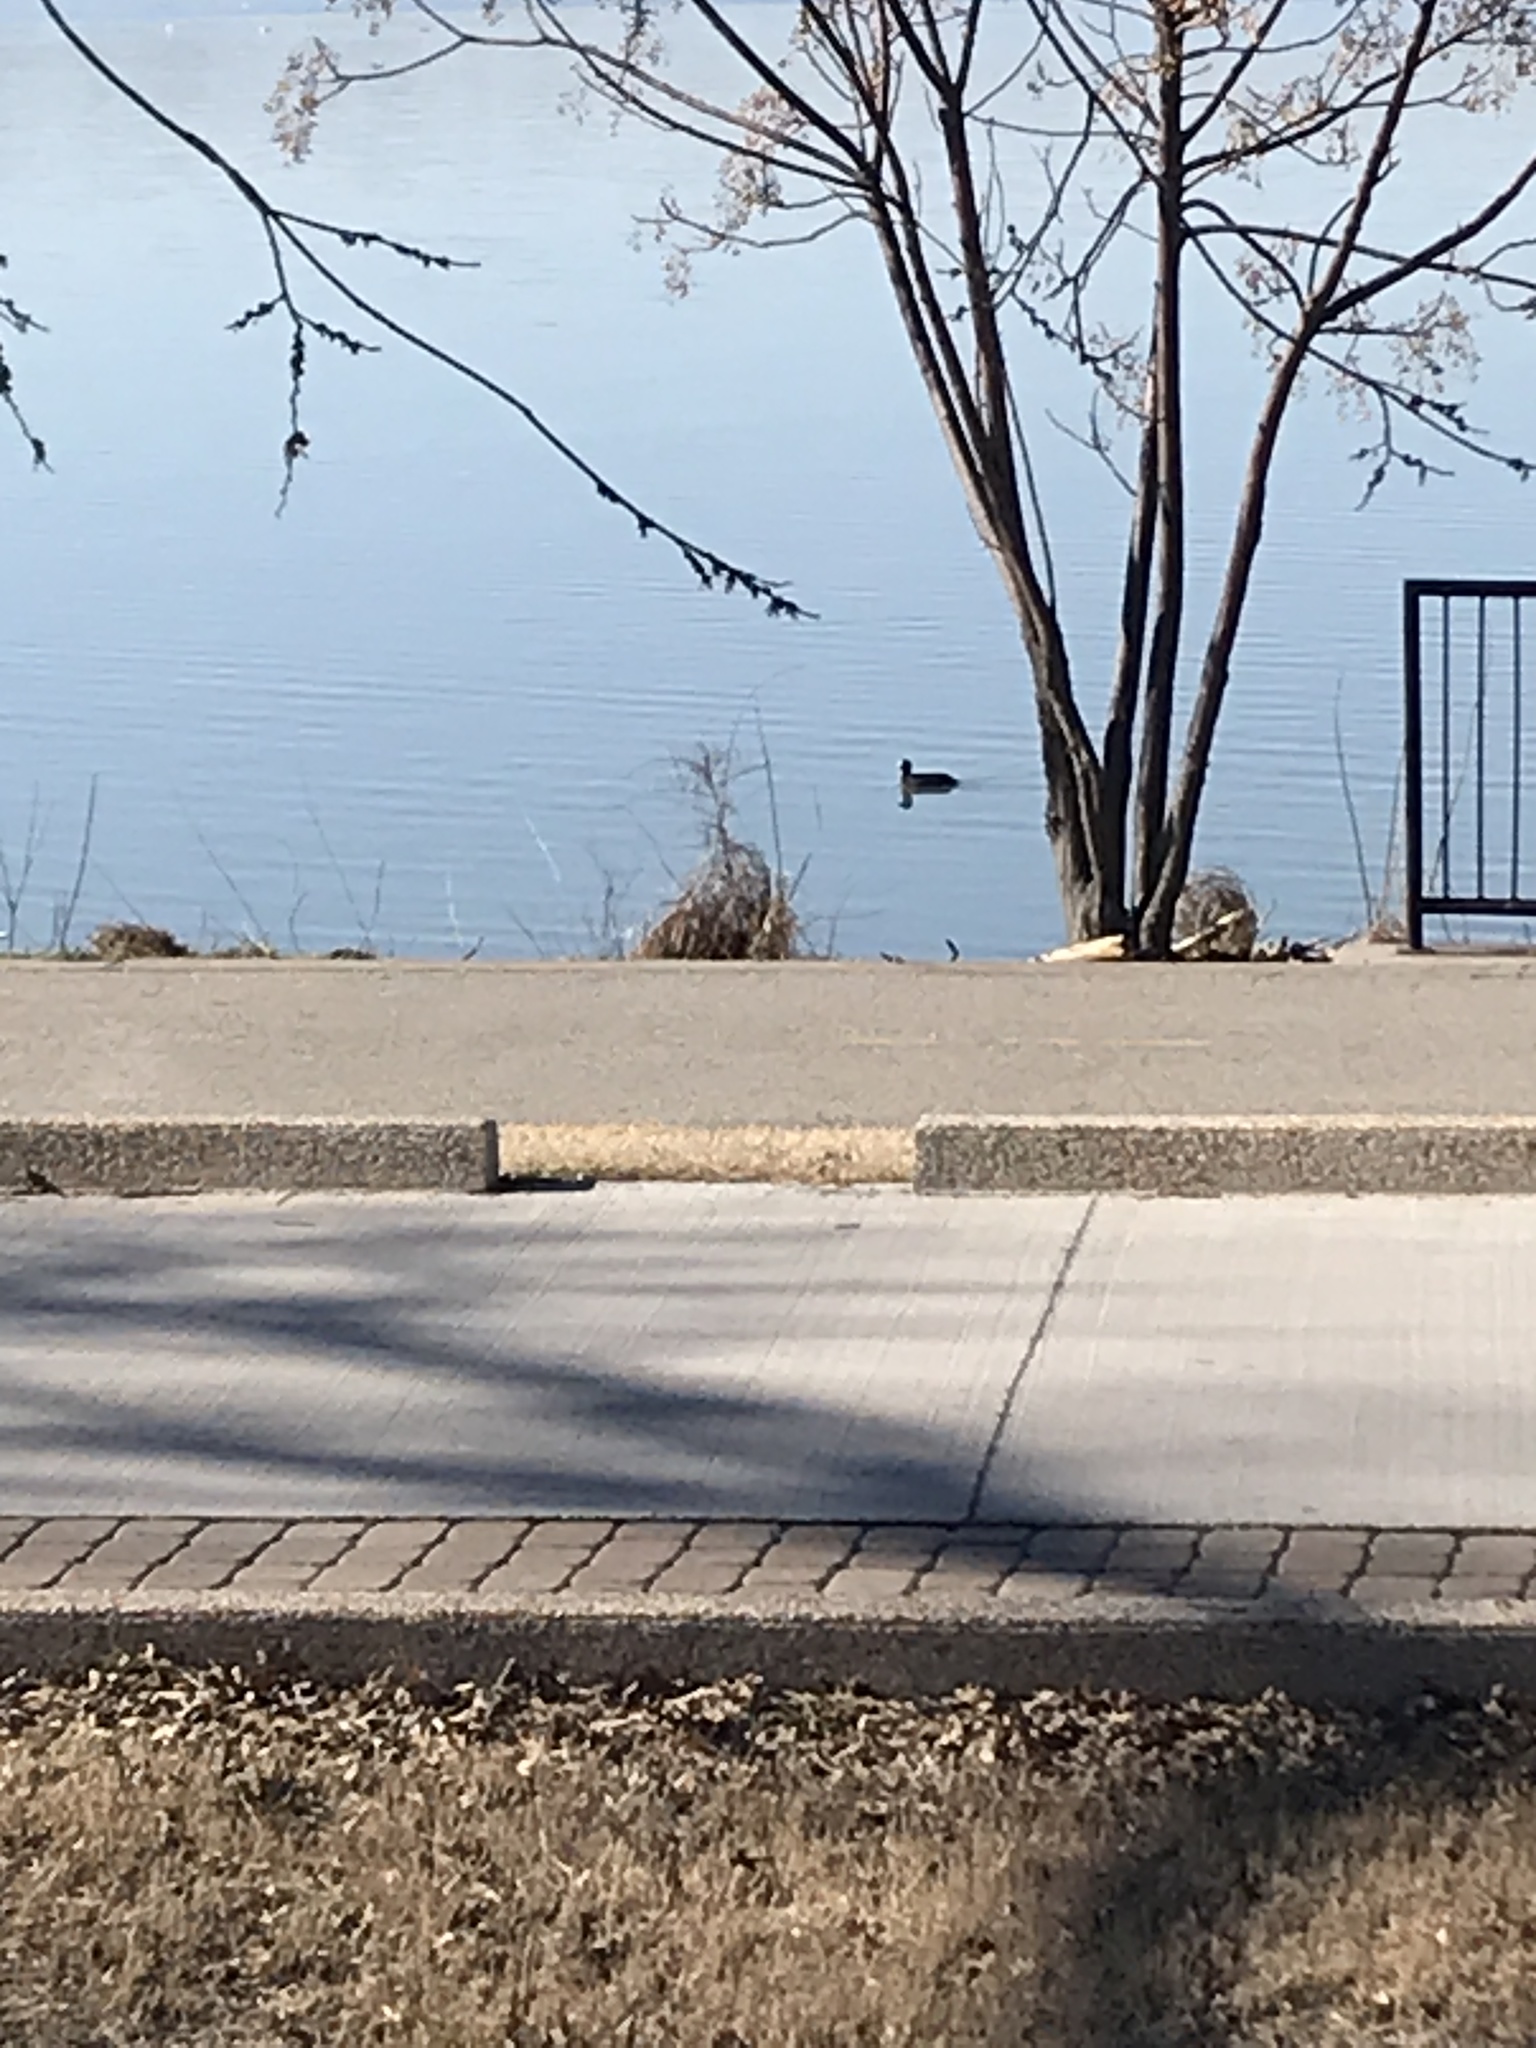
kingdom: Animalia
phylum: Chordata
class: Aves
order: Gruiformes
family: Rallidae
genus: Fulica
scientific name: Fulica americana
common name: American coot
